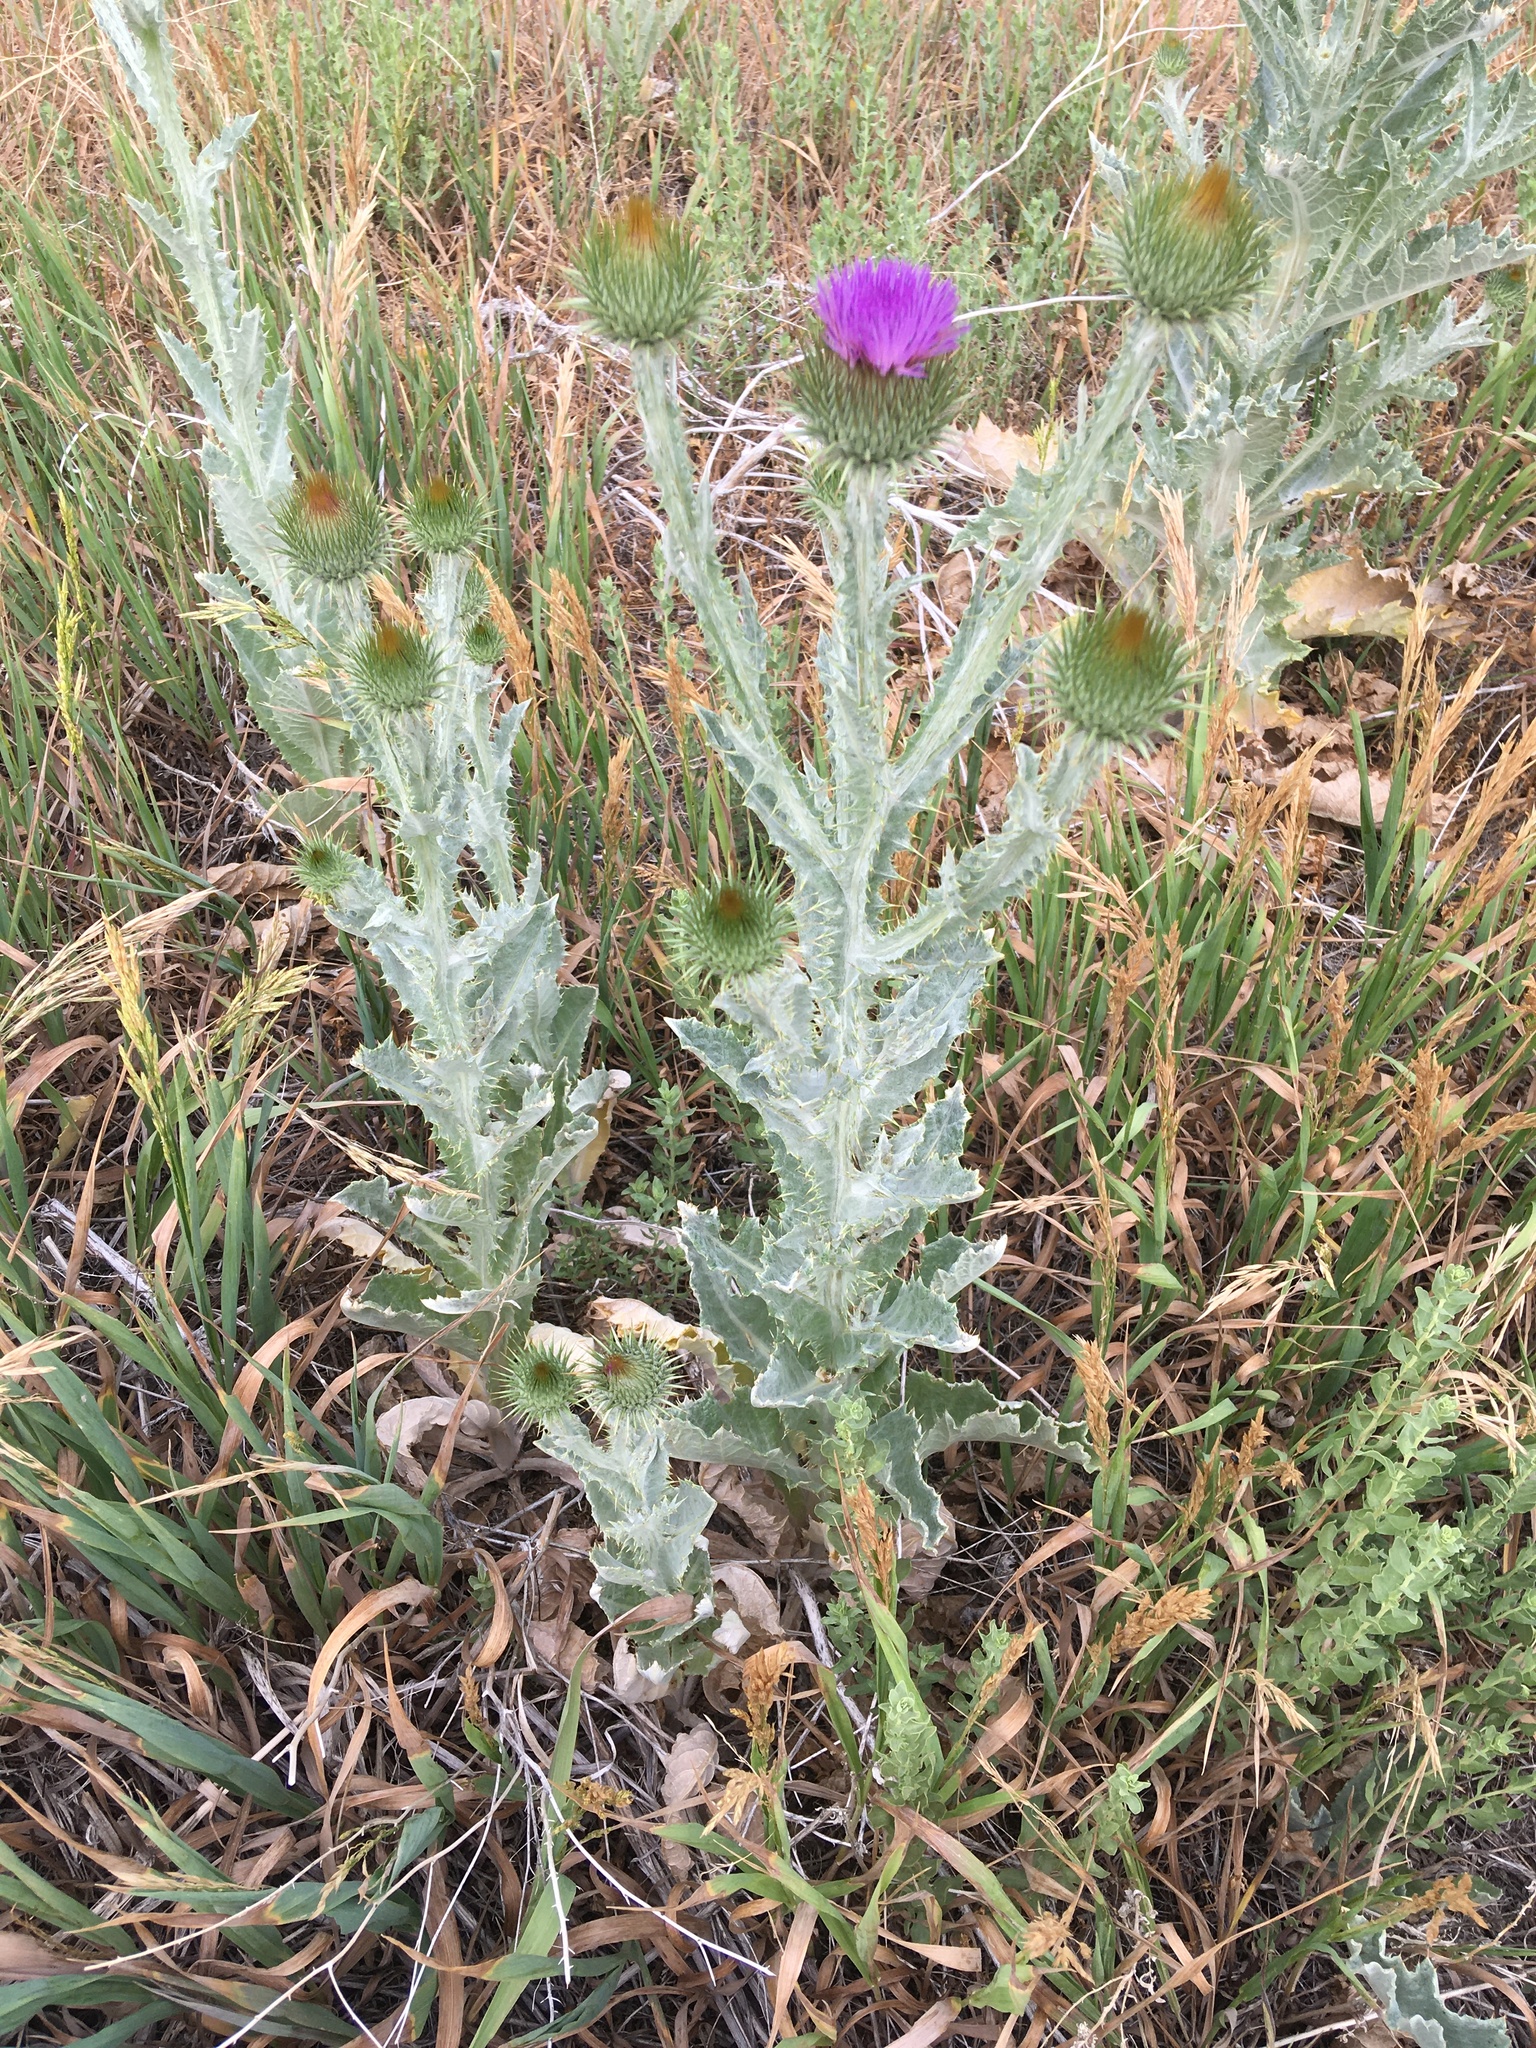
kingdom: Plantae
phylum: Tracheophyta
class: Magnoliopsida
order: Asterales
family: Asteraceae
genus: Onopordum
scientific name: Onopordum acanthium
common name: Scotch thistle
